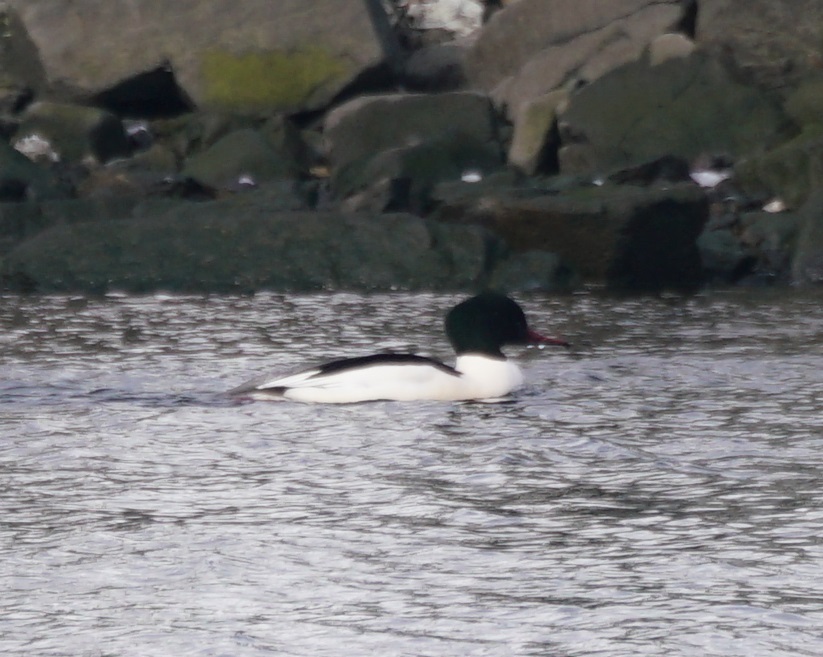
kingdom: Animalia
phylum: Chordata
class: Aves
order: Anseriformes
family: Anatidae
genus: Mergus
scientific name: Mergus merganser
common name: Common merganser
